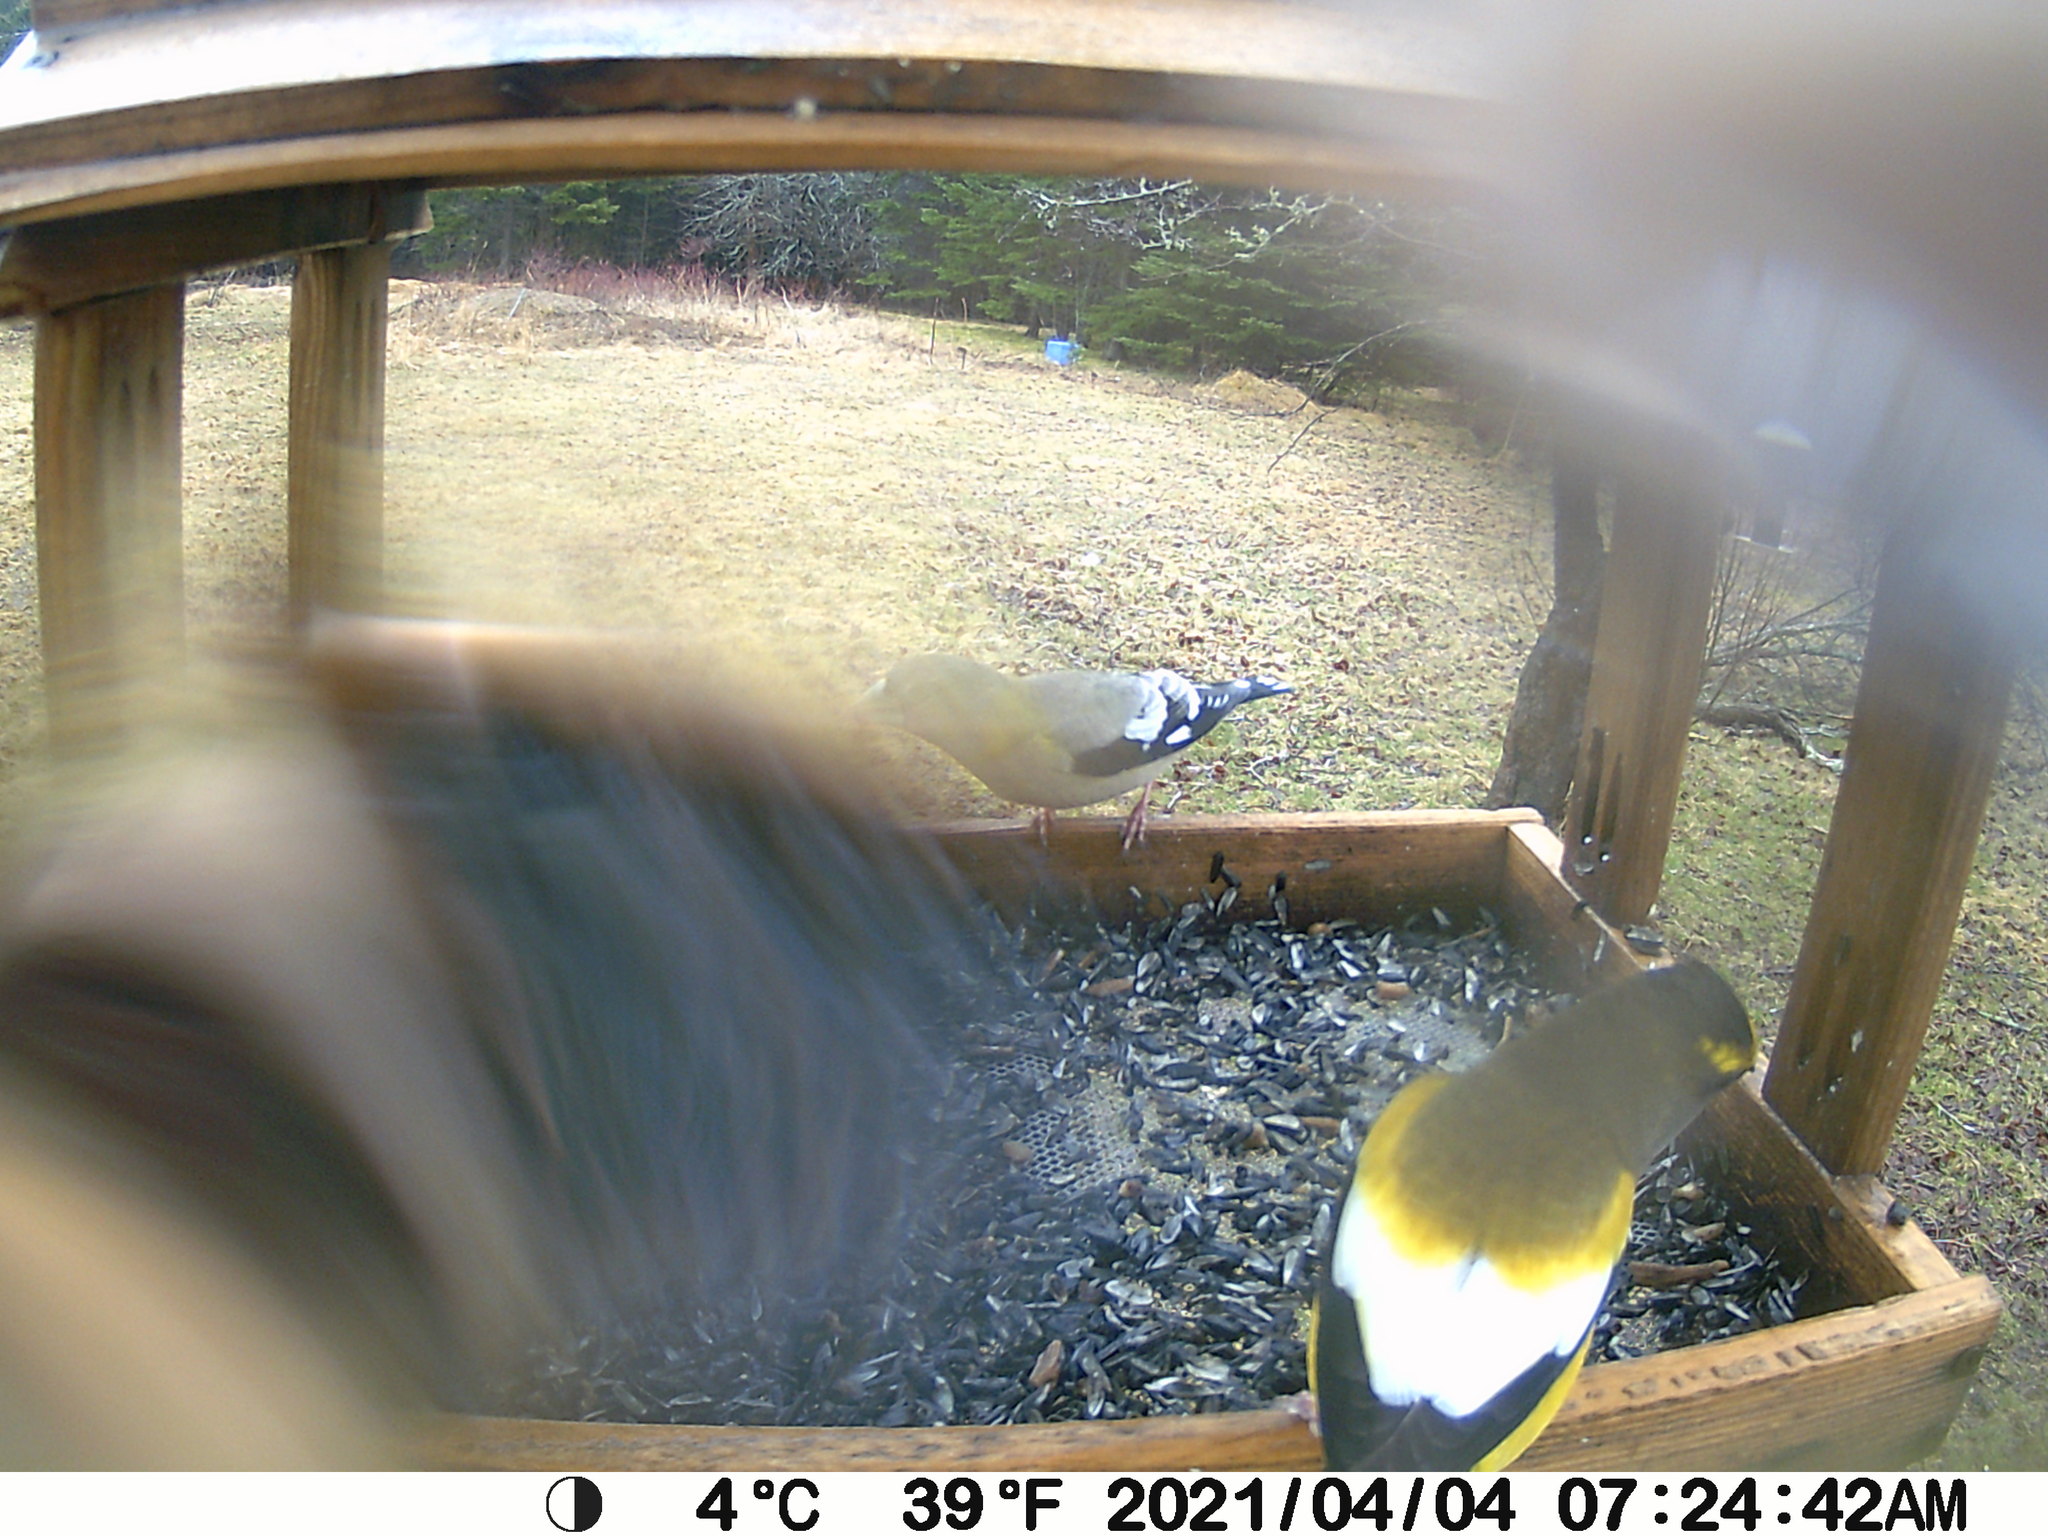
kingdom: Animalia
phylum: Chordata
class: Aves
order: Passeriformes
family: Fringillidae
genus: Hesperiphona
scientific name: Hesperiphona vespertina
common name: Evening grosbeak
